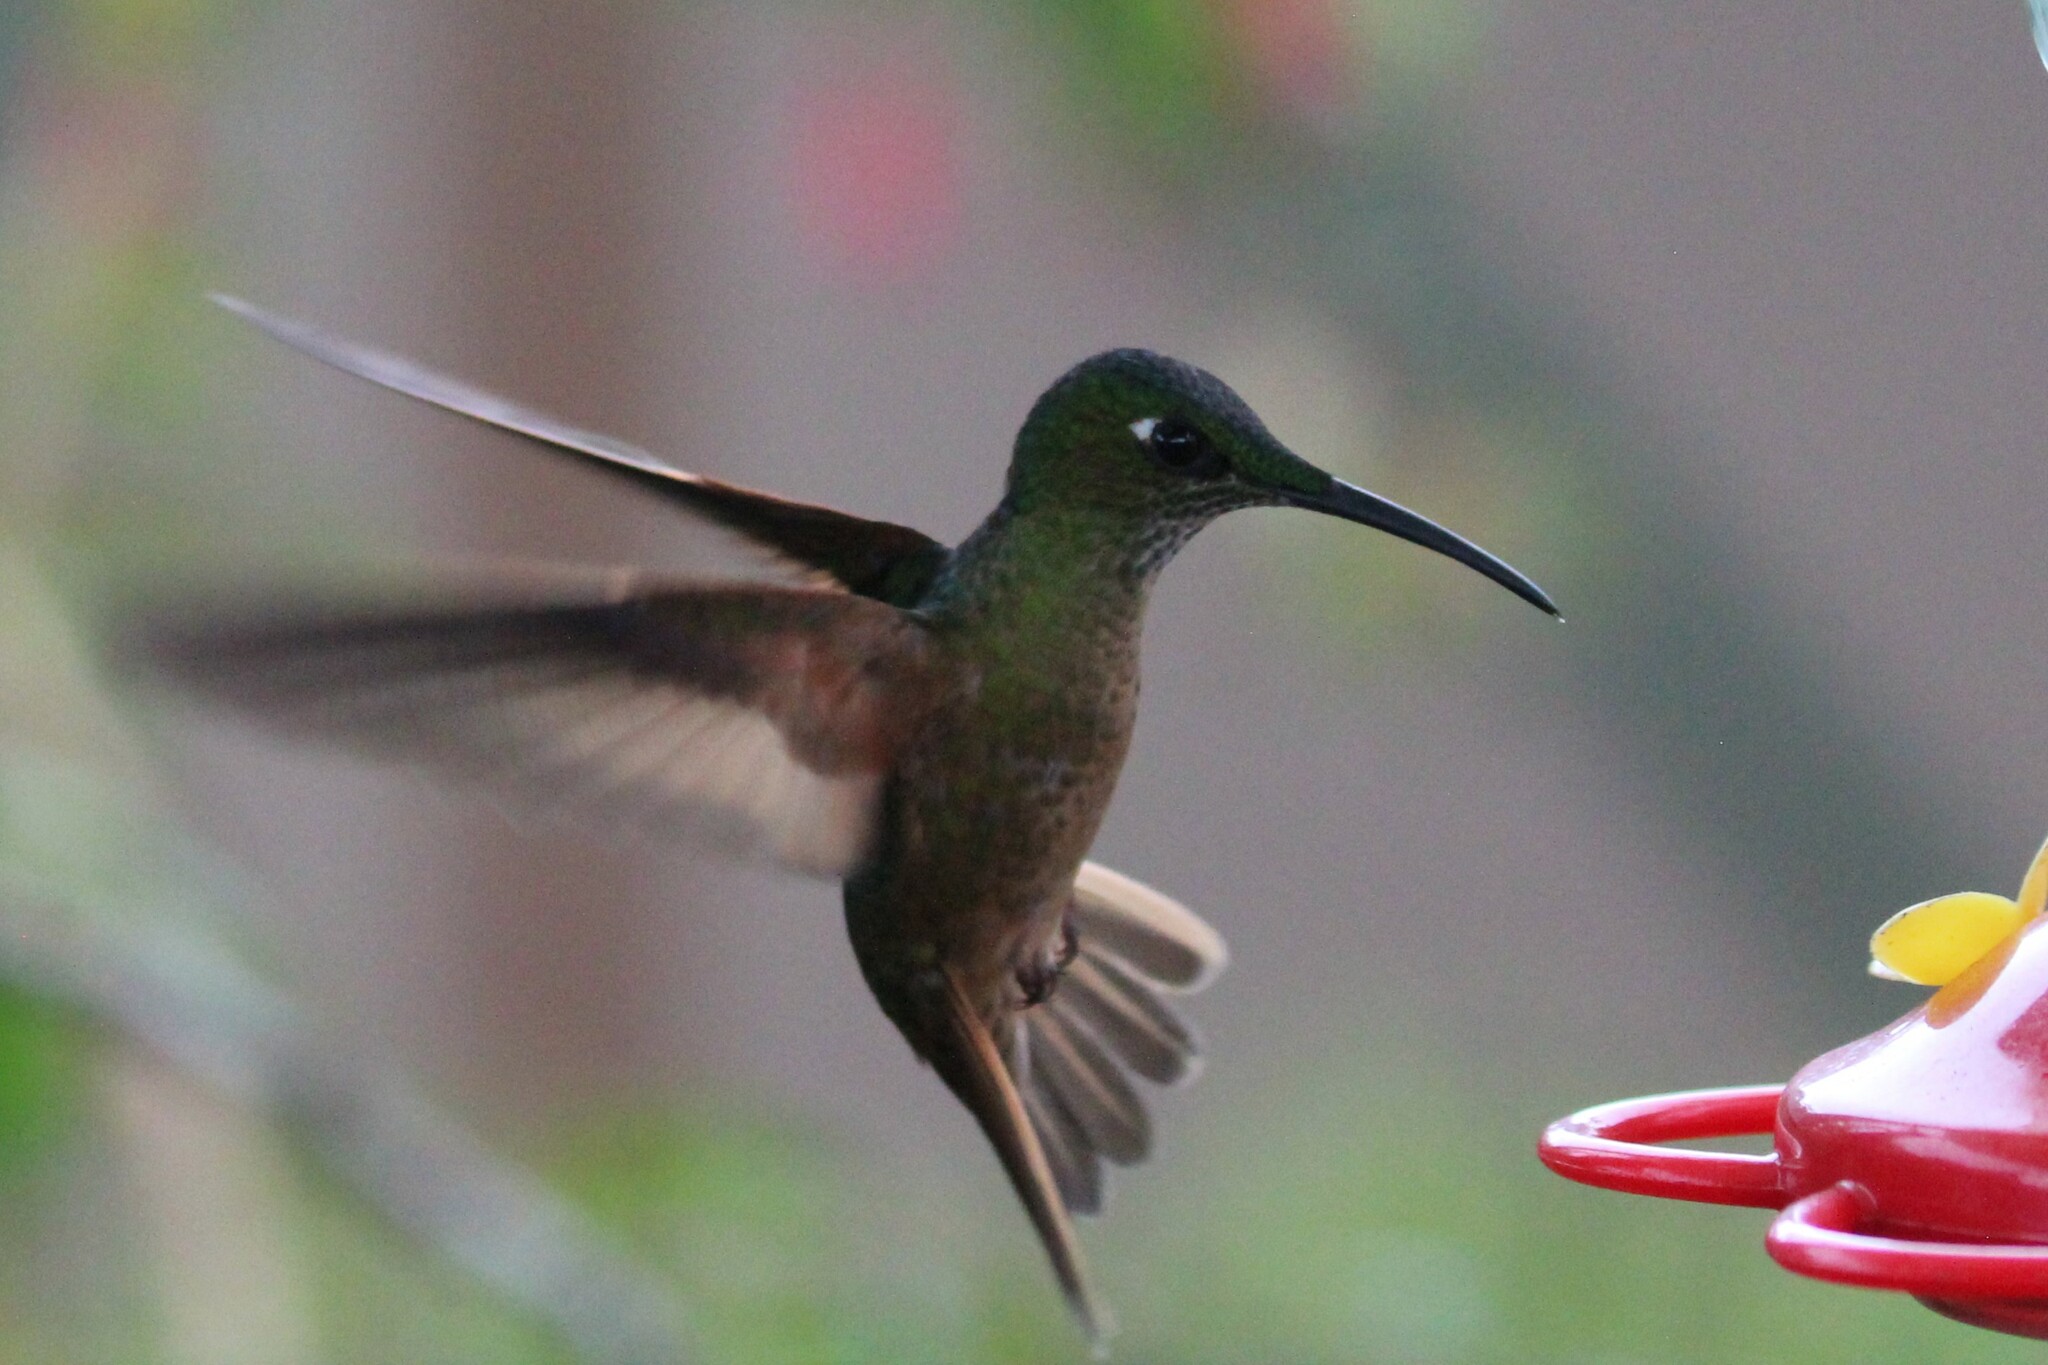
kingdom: Animalia
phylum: Chordata
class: Aves
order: Apodiformes
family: Trochilidae
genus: Heliodoxa
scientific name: Heliodoxa rubinoides
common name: Fawn-breasted brilliant
